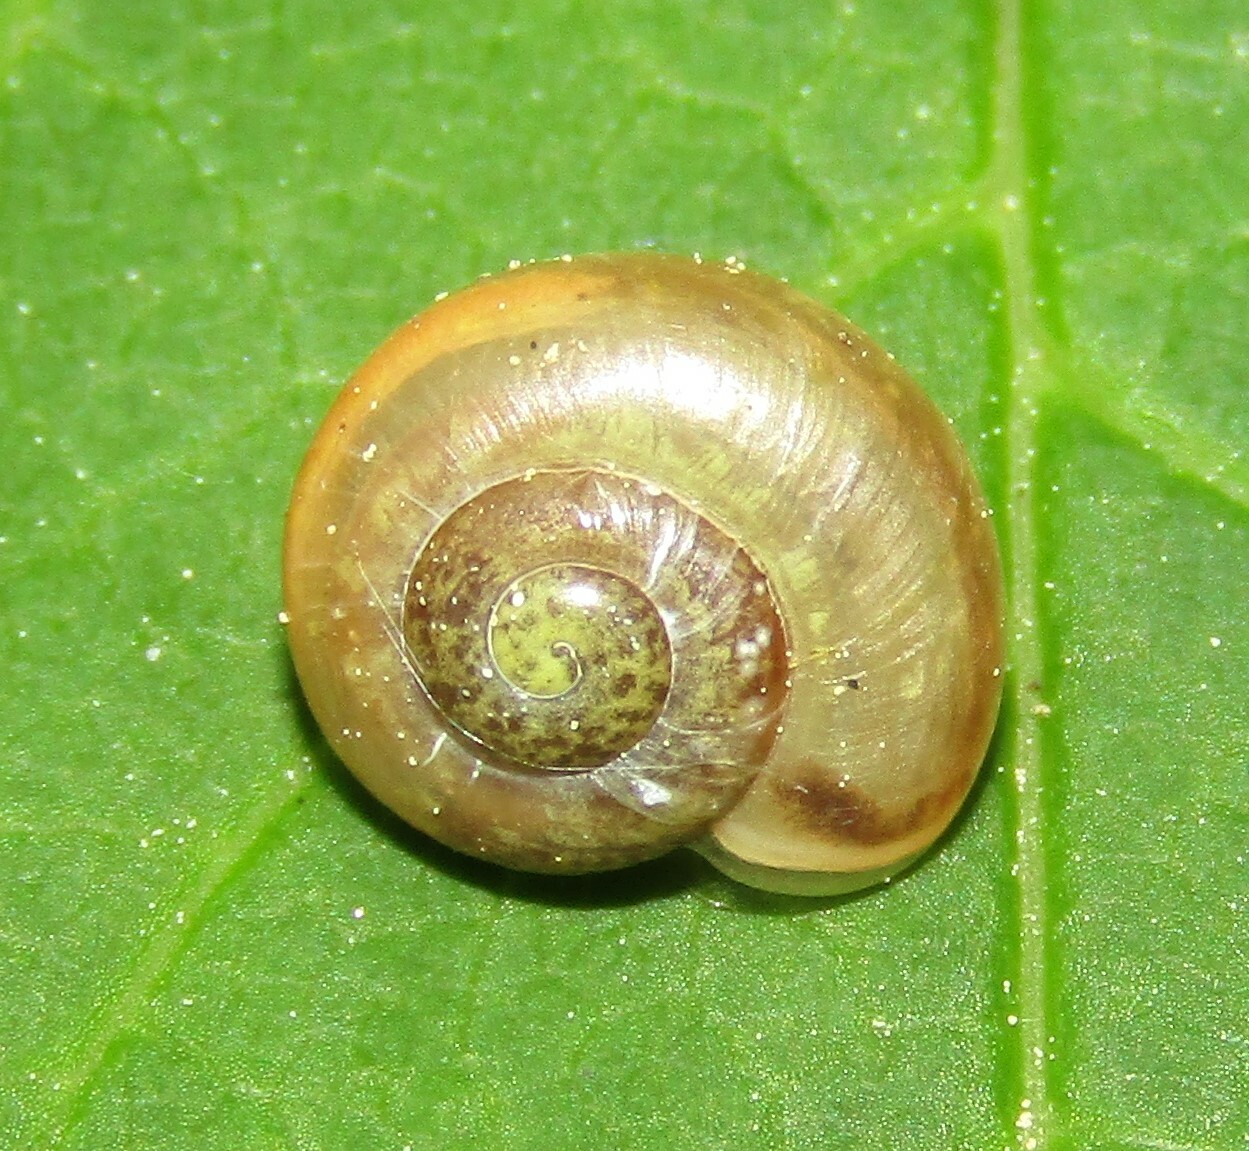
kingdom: Animalia
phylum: Mollusca
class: Gastropoda
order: Stylommatophora
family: Camaenidae
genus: Fruticicola
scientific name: Fruticicola fruticum
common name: Bush snail
